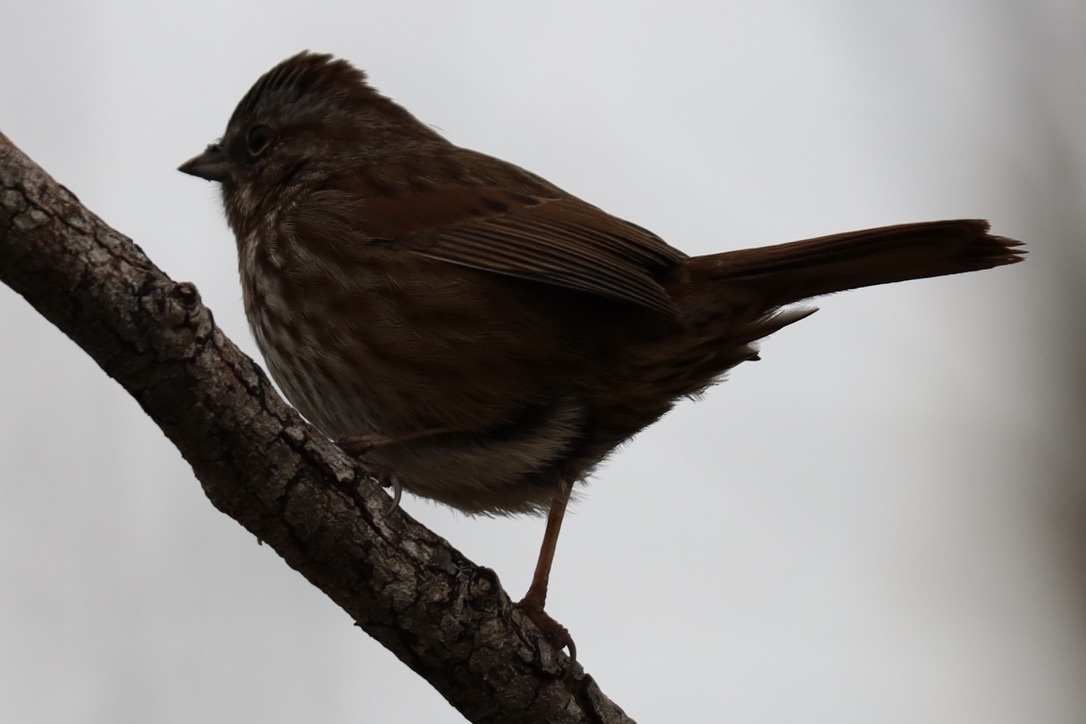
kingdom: Animalia
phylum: Chordata
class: Aves
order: Passeriformes
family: Passerellidae
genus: Melospiza
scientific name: Melospiza melodia
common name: Song sparrow
